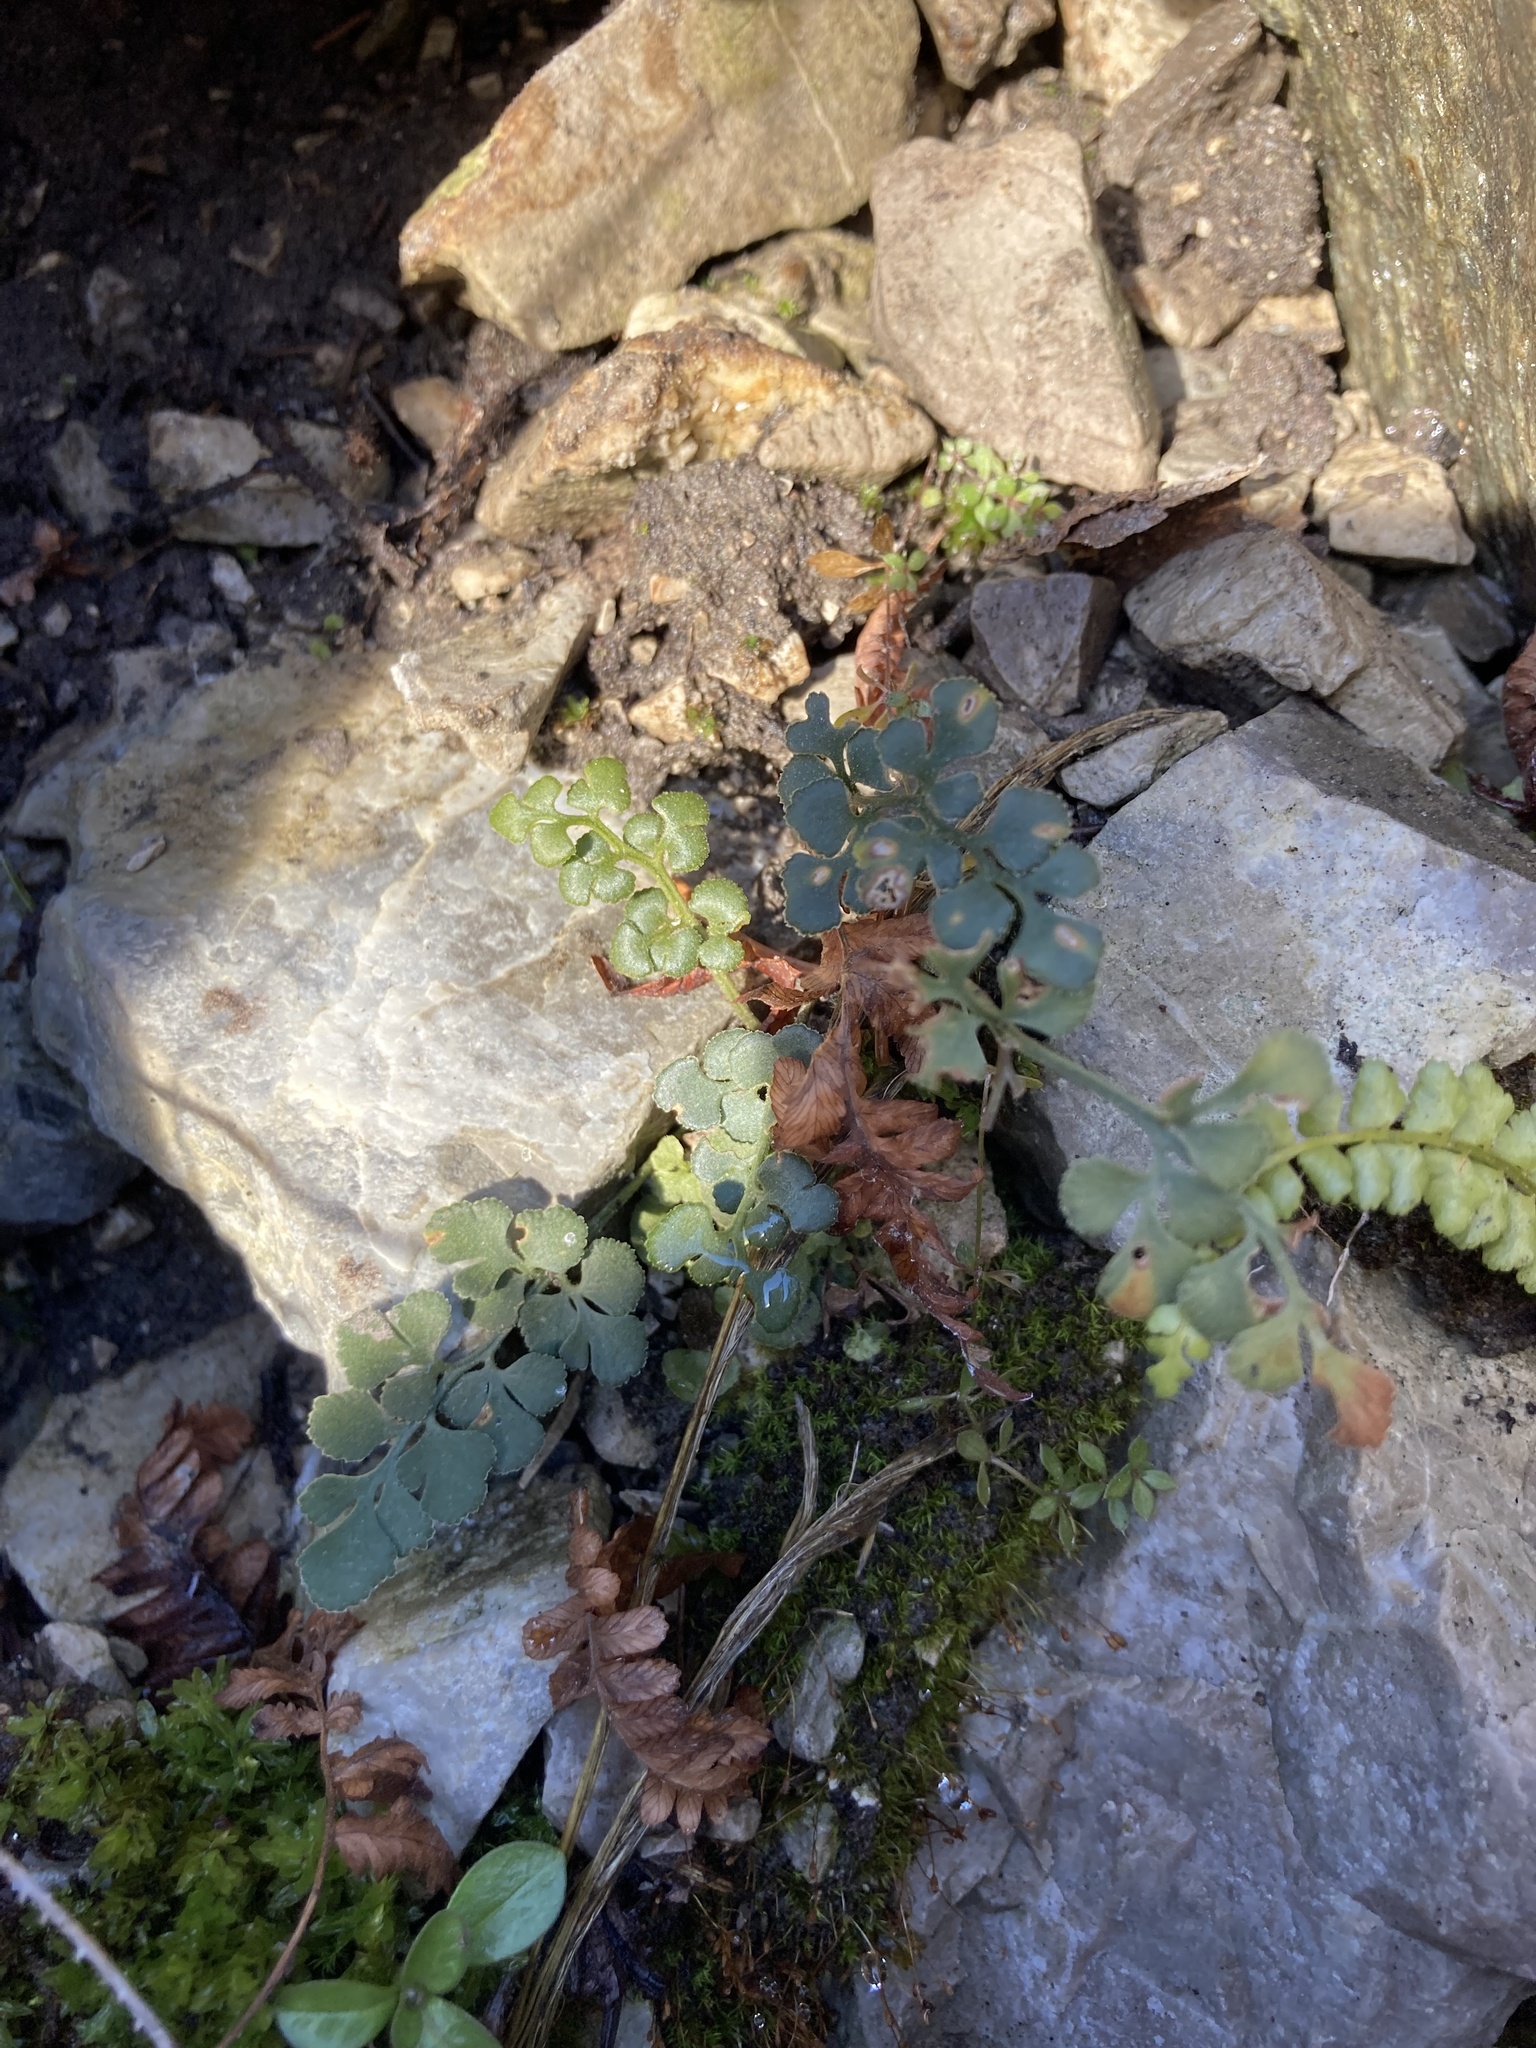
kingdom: Plantae
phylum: Tracheophyta
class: Polypodiopsida
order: Polypodiales
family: Aspleniaceae
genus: Asplenium
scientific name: Asplenium ruta-muraria
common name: Wall-rue
